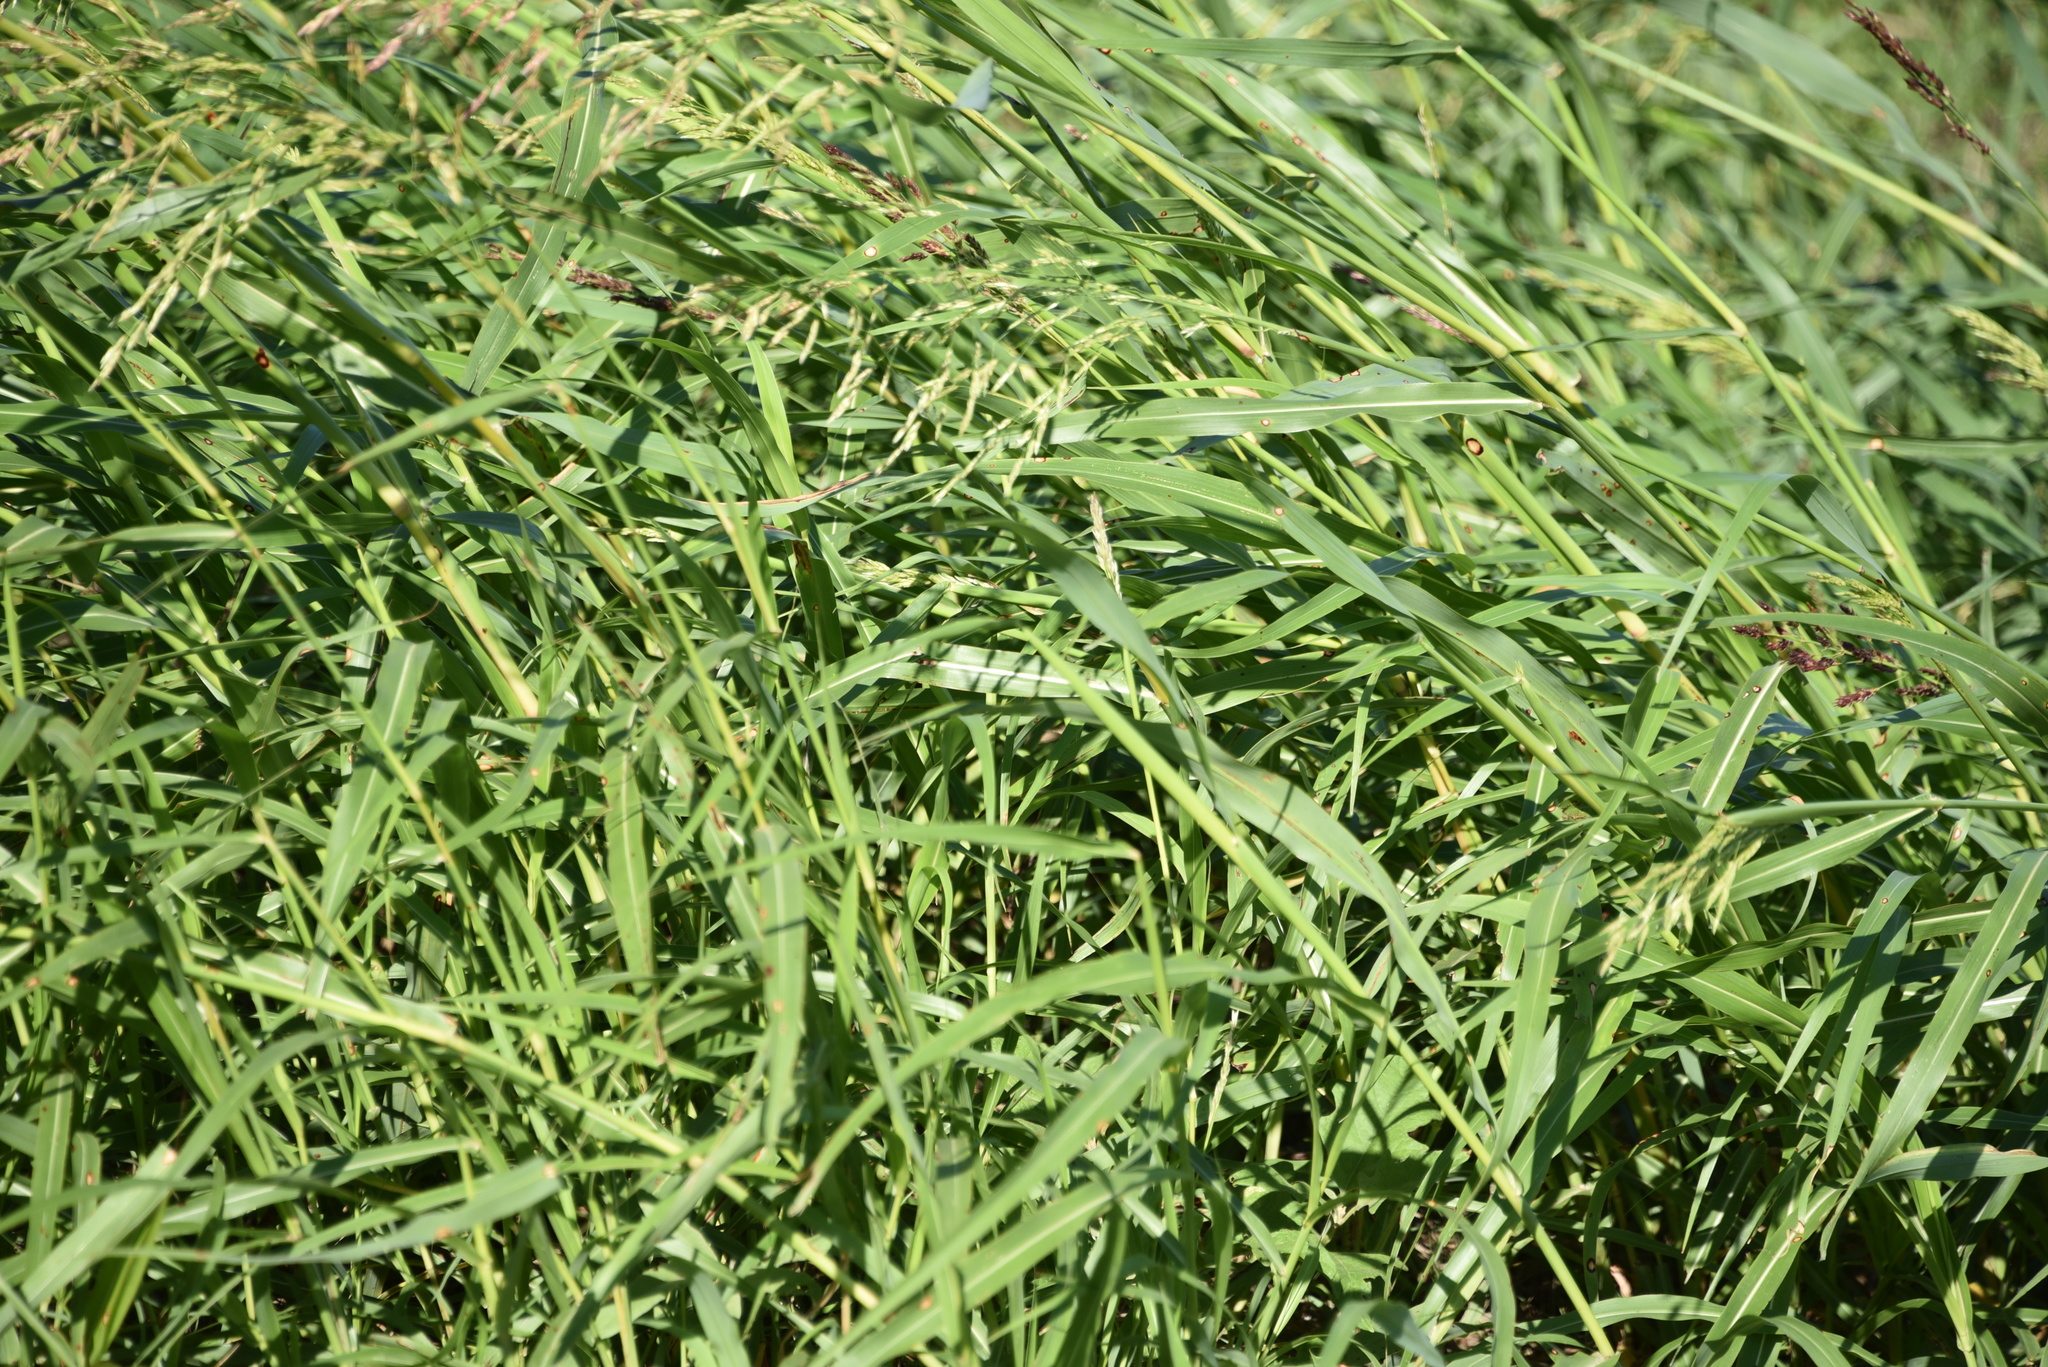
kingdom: Plantae
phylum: Tracheophyta
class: Liliopsida
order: Poales
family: Poaceae
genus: Sorghum
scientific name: Sorghum halepense
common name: Johnson-grass
